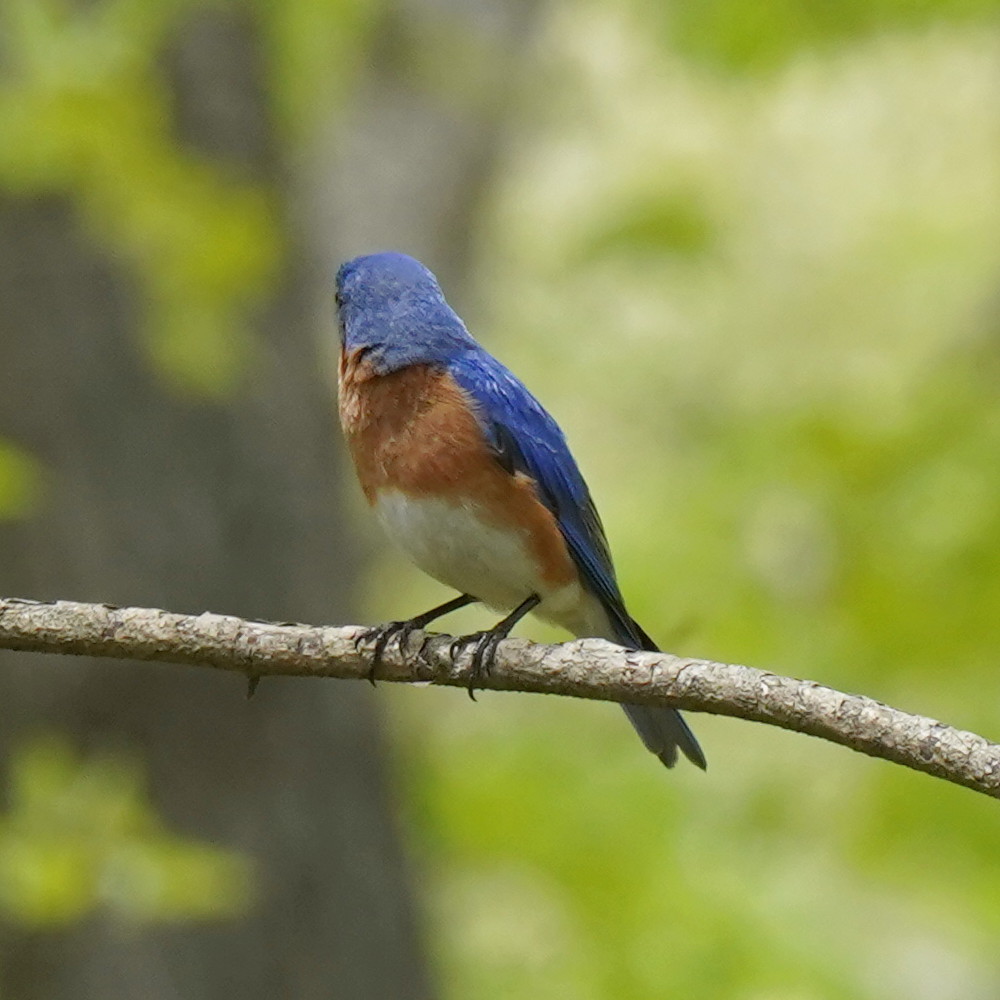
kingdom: Animalia
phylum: Chordata
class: Aves
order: Passeriformes
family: Turdidae
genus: Sialia
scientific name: Sialia sialis
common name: Eastern bluebird
